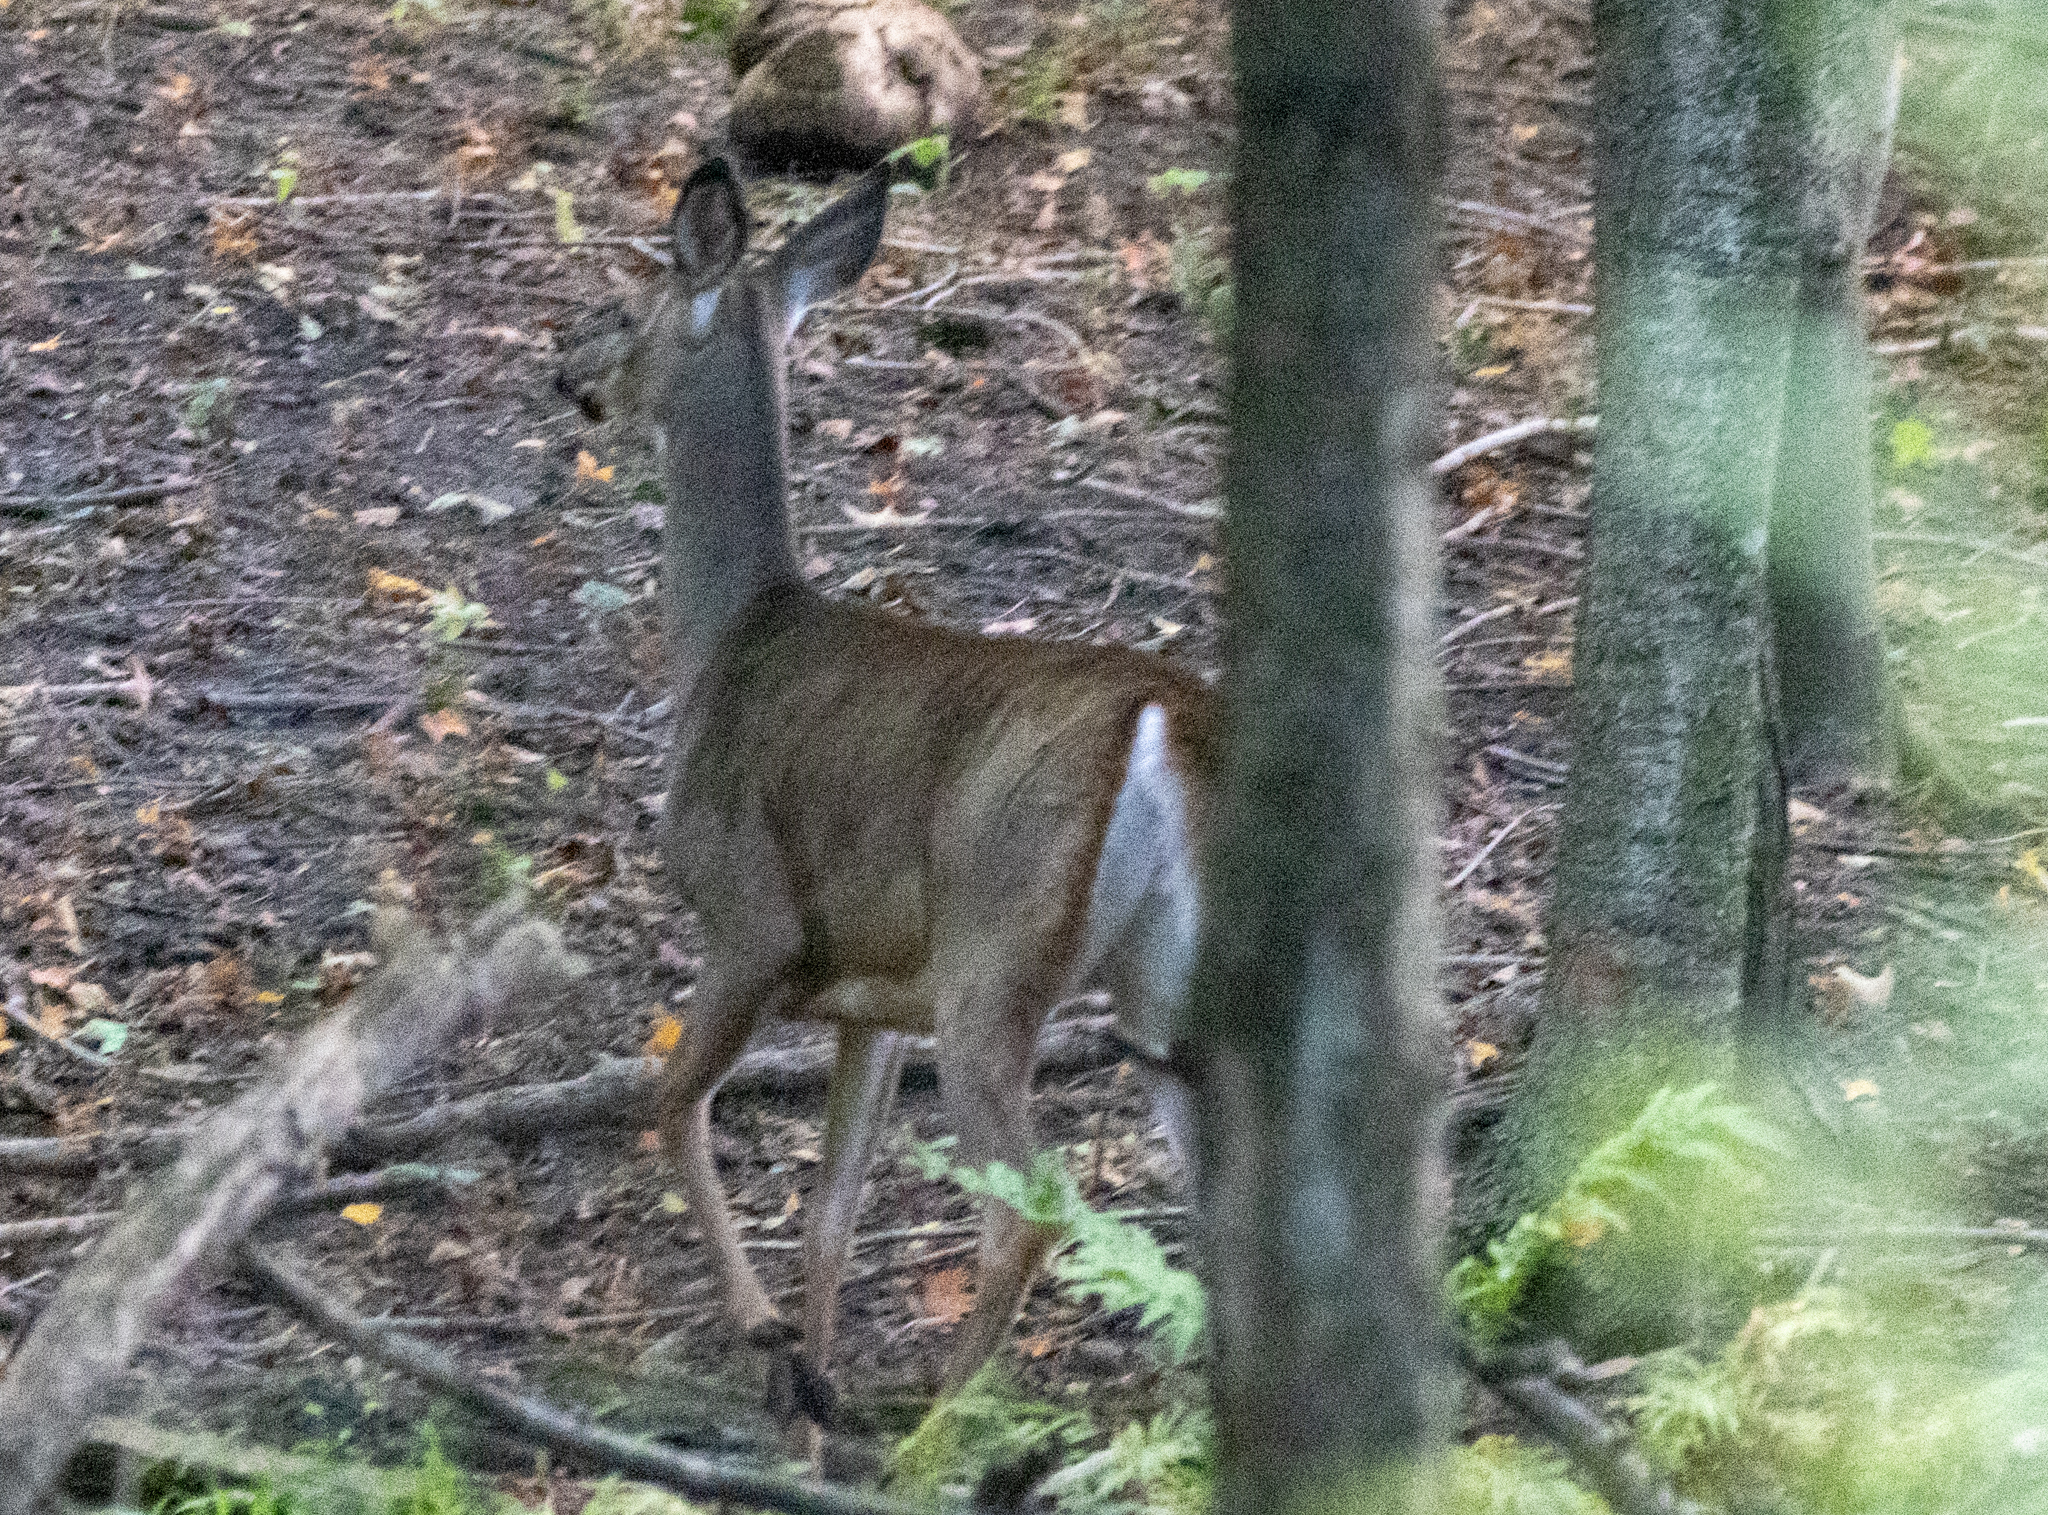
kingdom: Animalia
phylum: Chordata
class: Mammalia
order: Artiodactyla
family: Cervidae
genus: Odocoileus
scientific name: Odocoileus virginianus
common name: White-tailed deer
